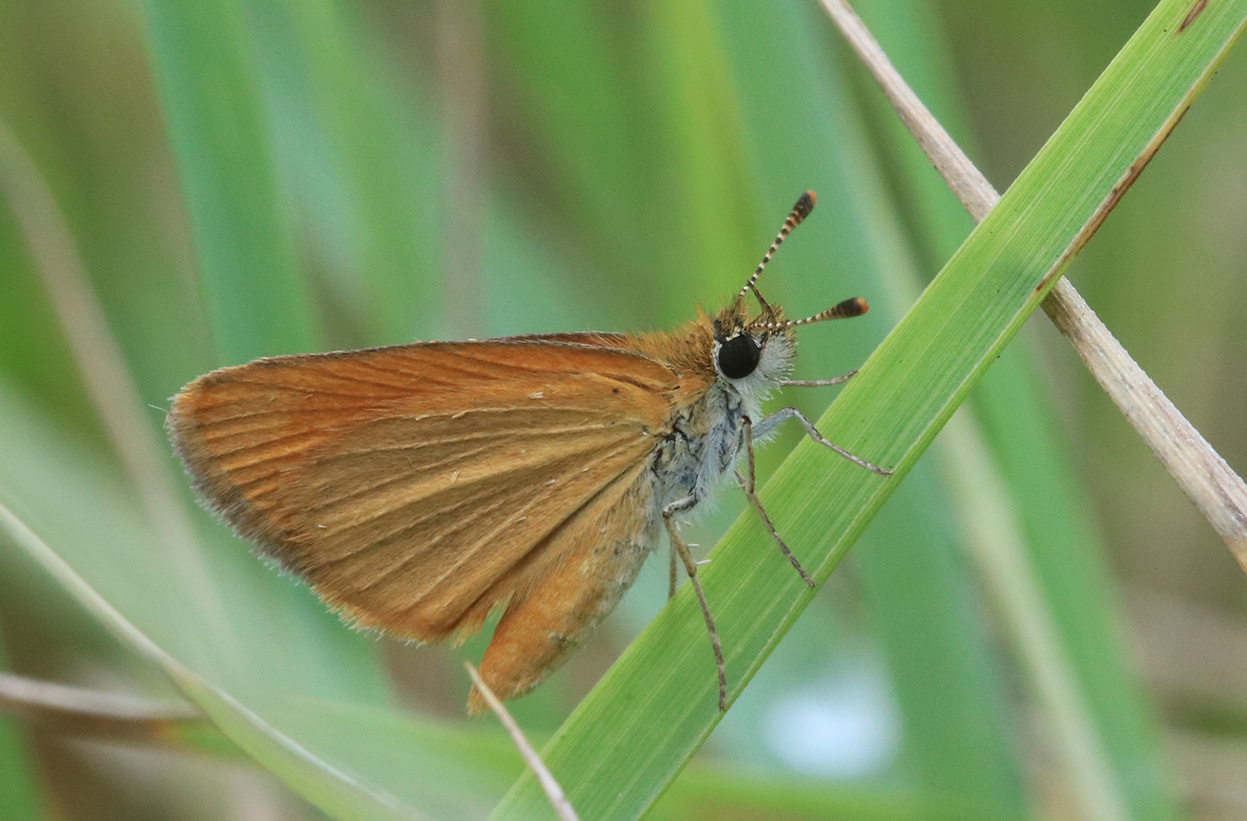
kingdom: Animalia
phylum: Arthropoda
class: Insecta
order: Lepidoptera
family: Hesperiidae
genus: Ancyloxypha
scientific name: Ancyloxypha nitedula
